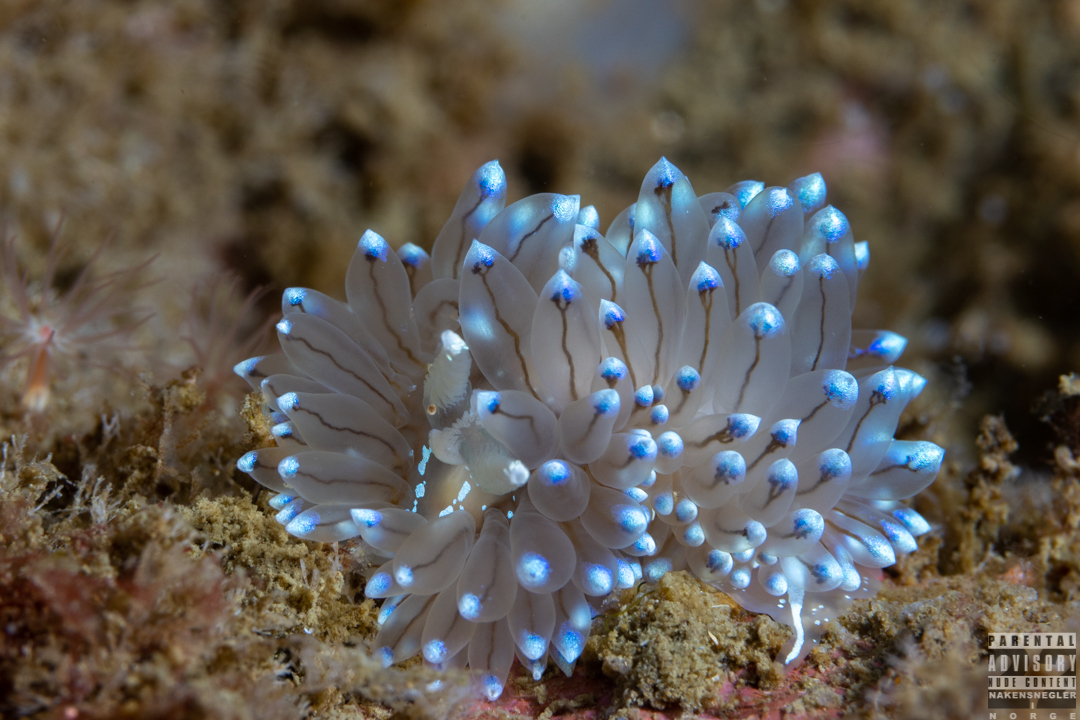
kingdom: Animalia
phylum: Mollusca
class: Gastropoda
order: Nudibranchia
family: Janolidae
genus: Antiopella
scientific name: Antiopella cristata
